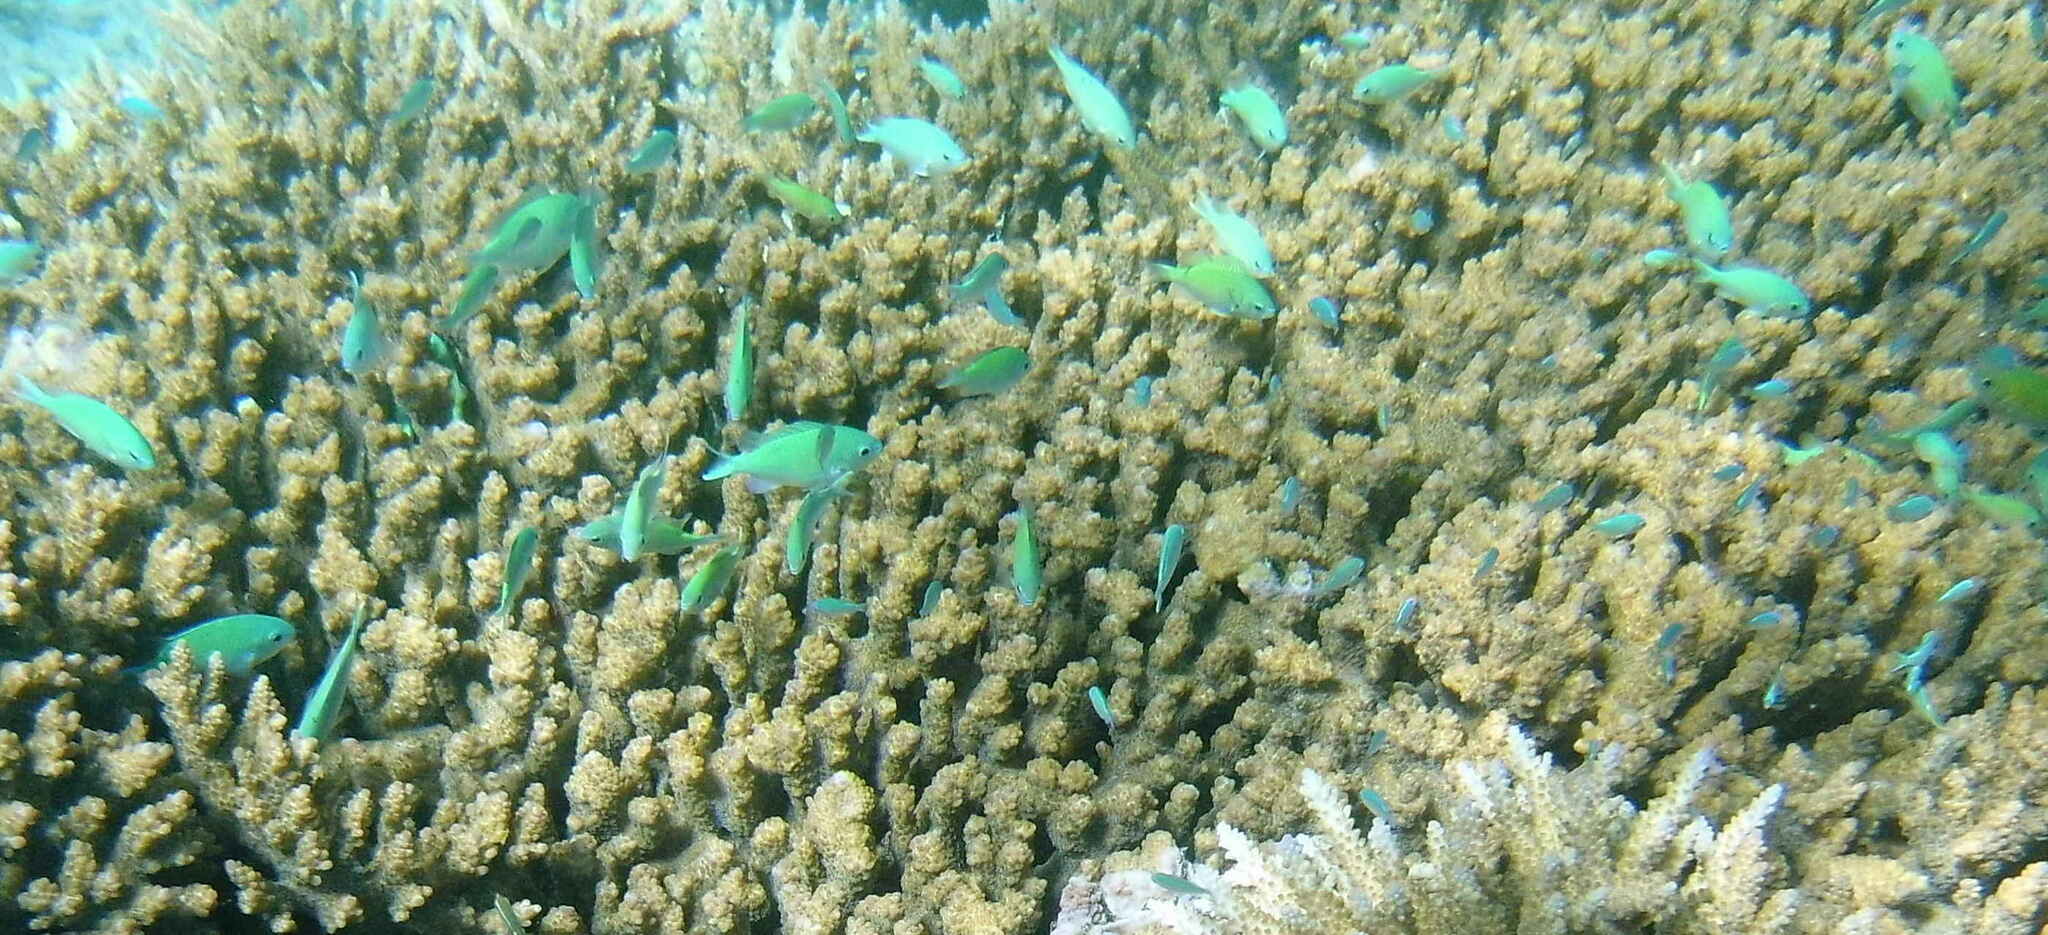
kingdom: Animalia
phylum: Chordata
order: Perciformes
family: Pomacentridae
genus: Chromis
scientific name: Chromis viridis
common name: Blue-green chromis
